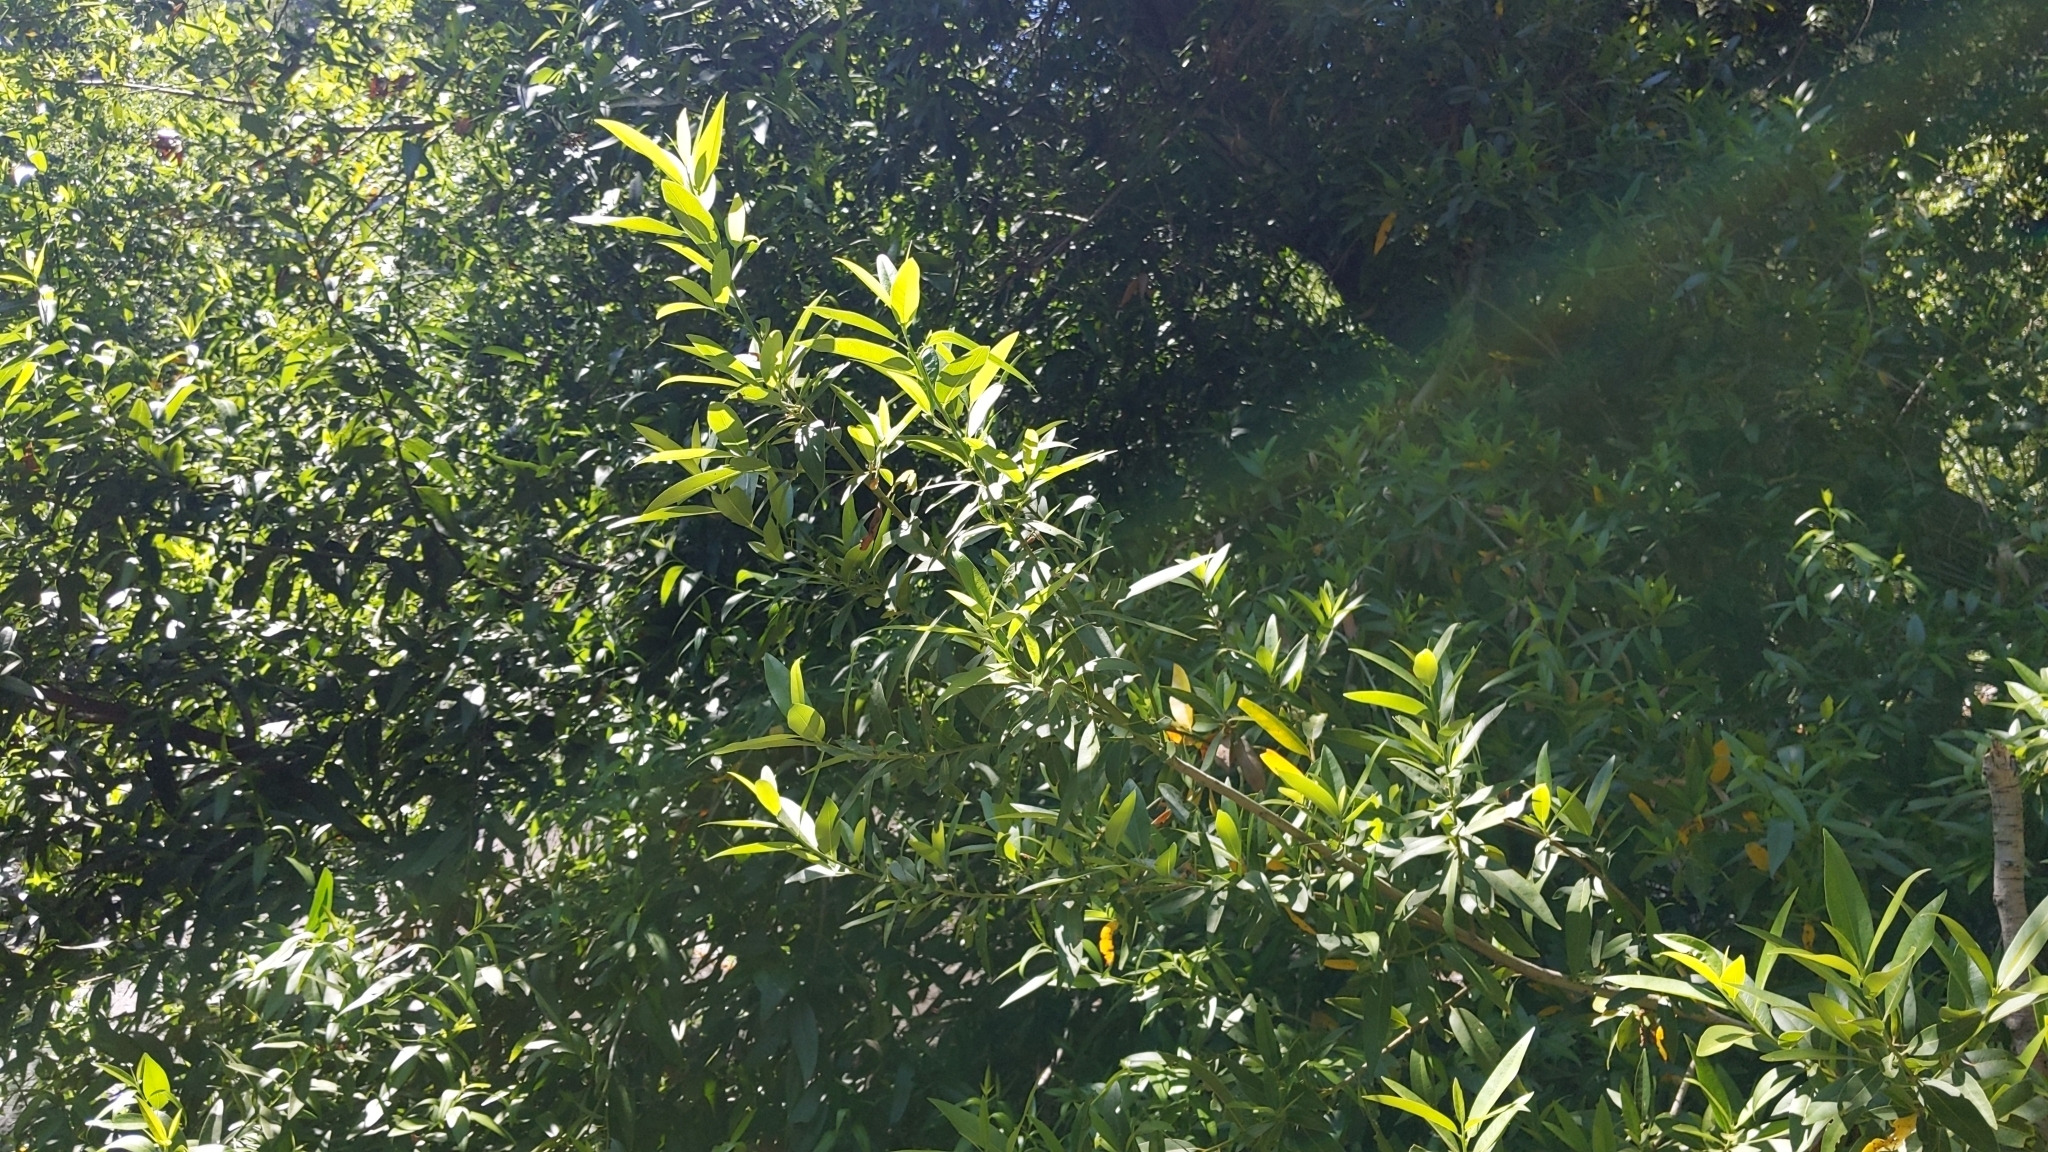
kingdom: Plantae
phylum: Tracheophyta
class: Magnoliopsida
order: Laurales
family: Lauraceae
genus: Umbellularia
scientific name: Umbellularia californica
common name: California bay
